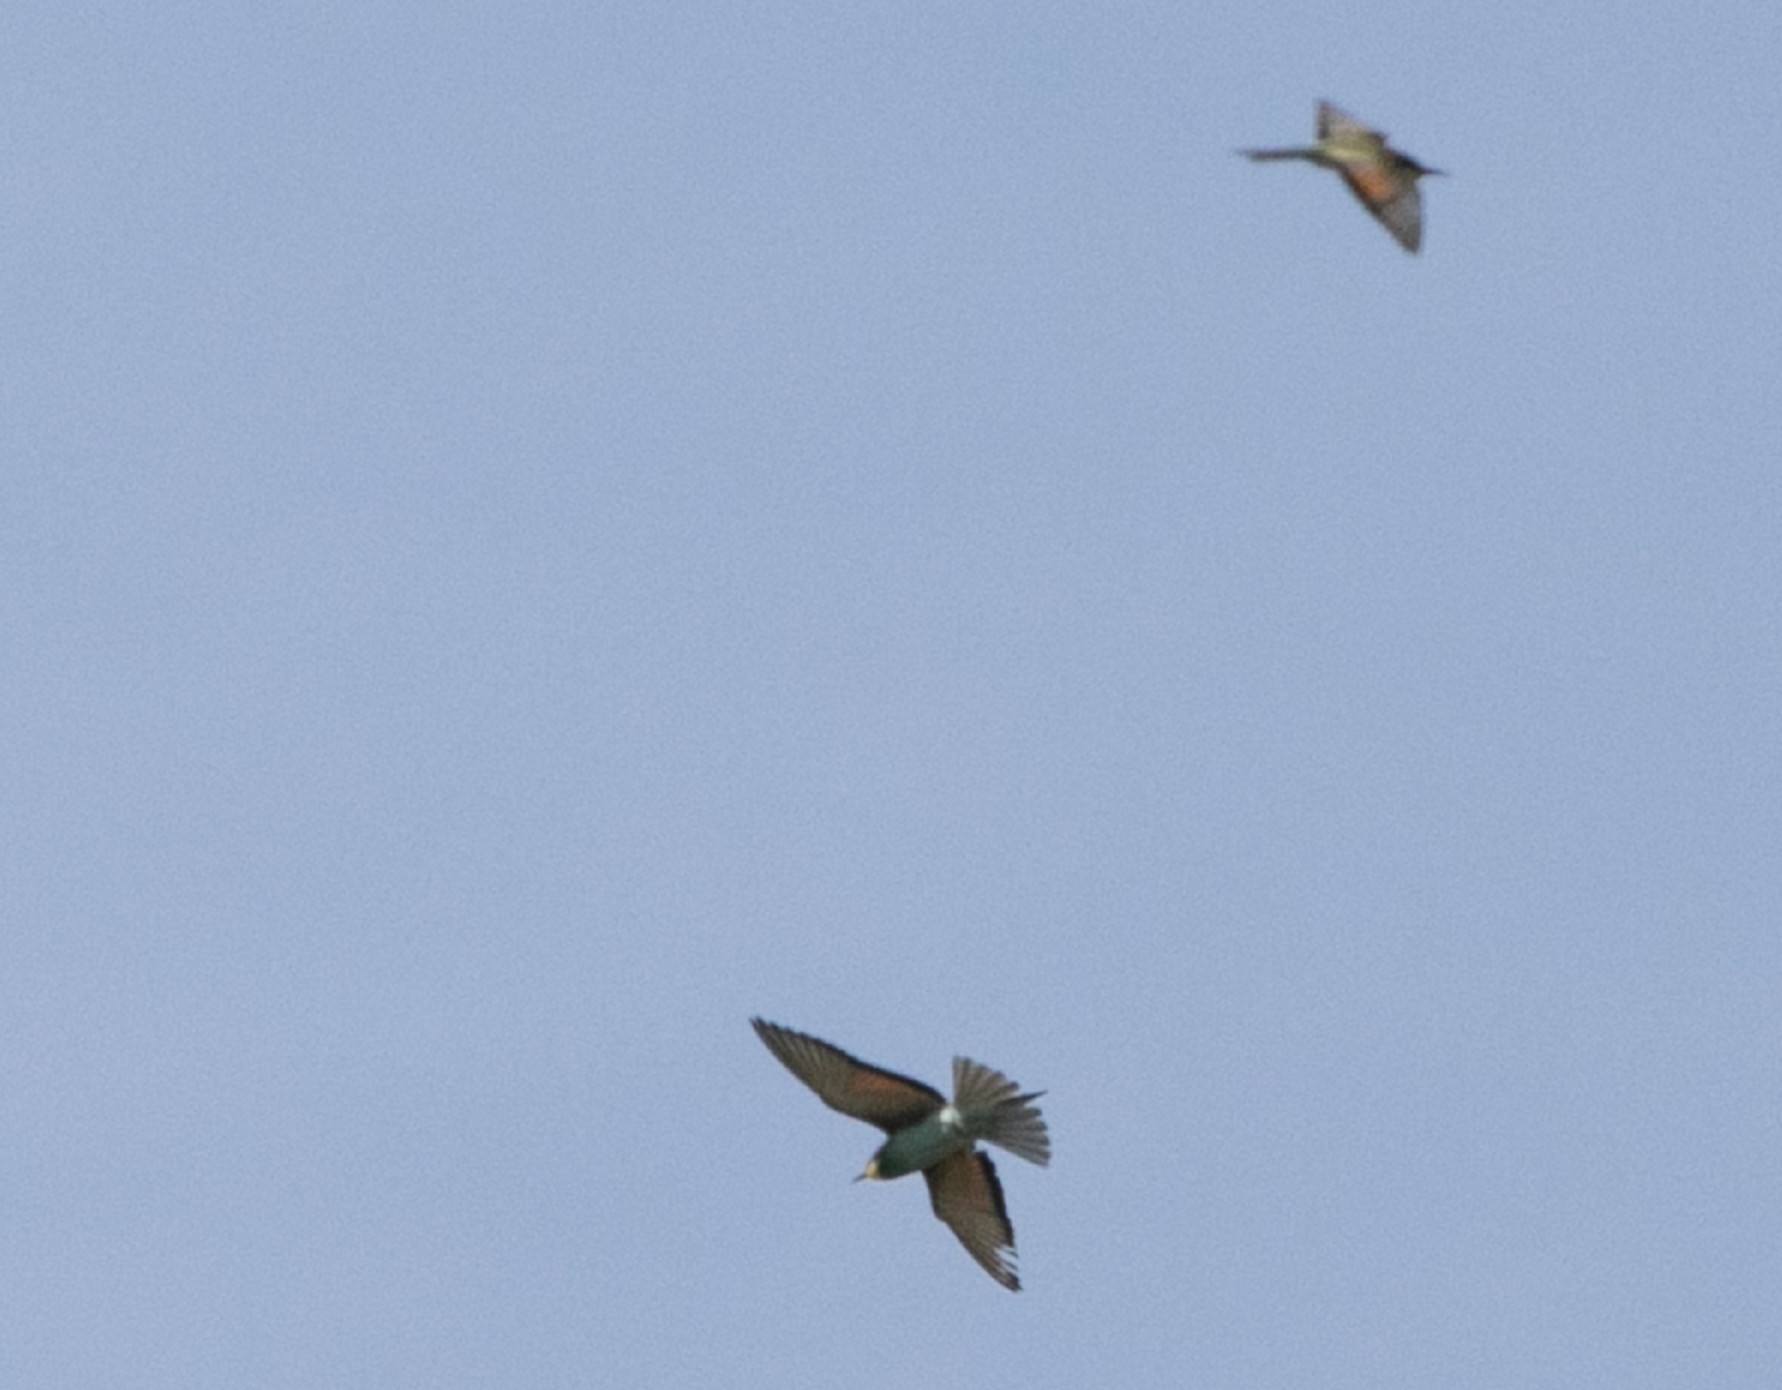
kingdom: Animalia
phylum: Chordata
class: Aves
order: Coraciiformes
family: Meropidae
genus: Merops
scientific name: Merops apiaster
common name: European bee-eater
